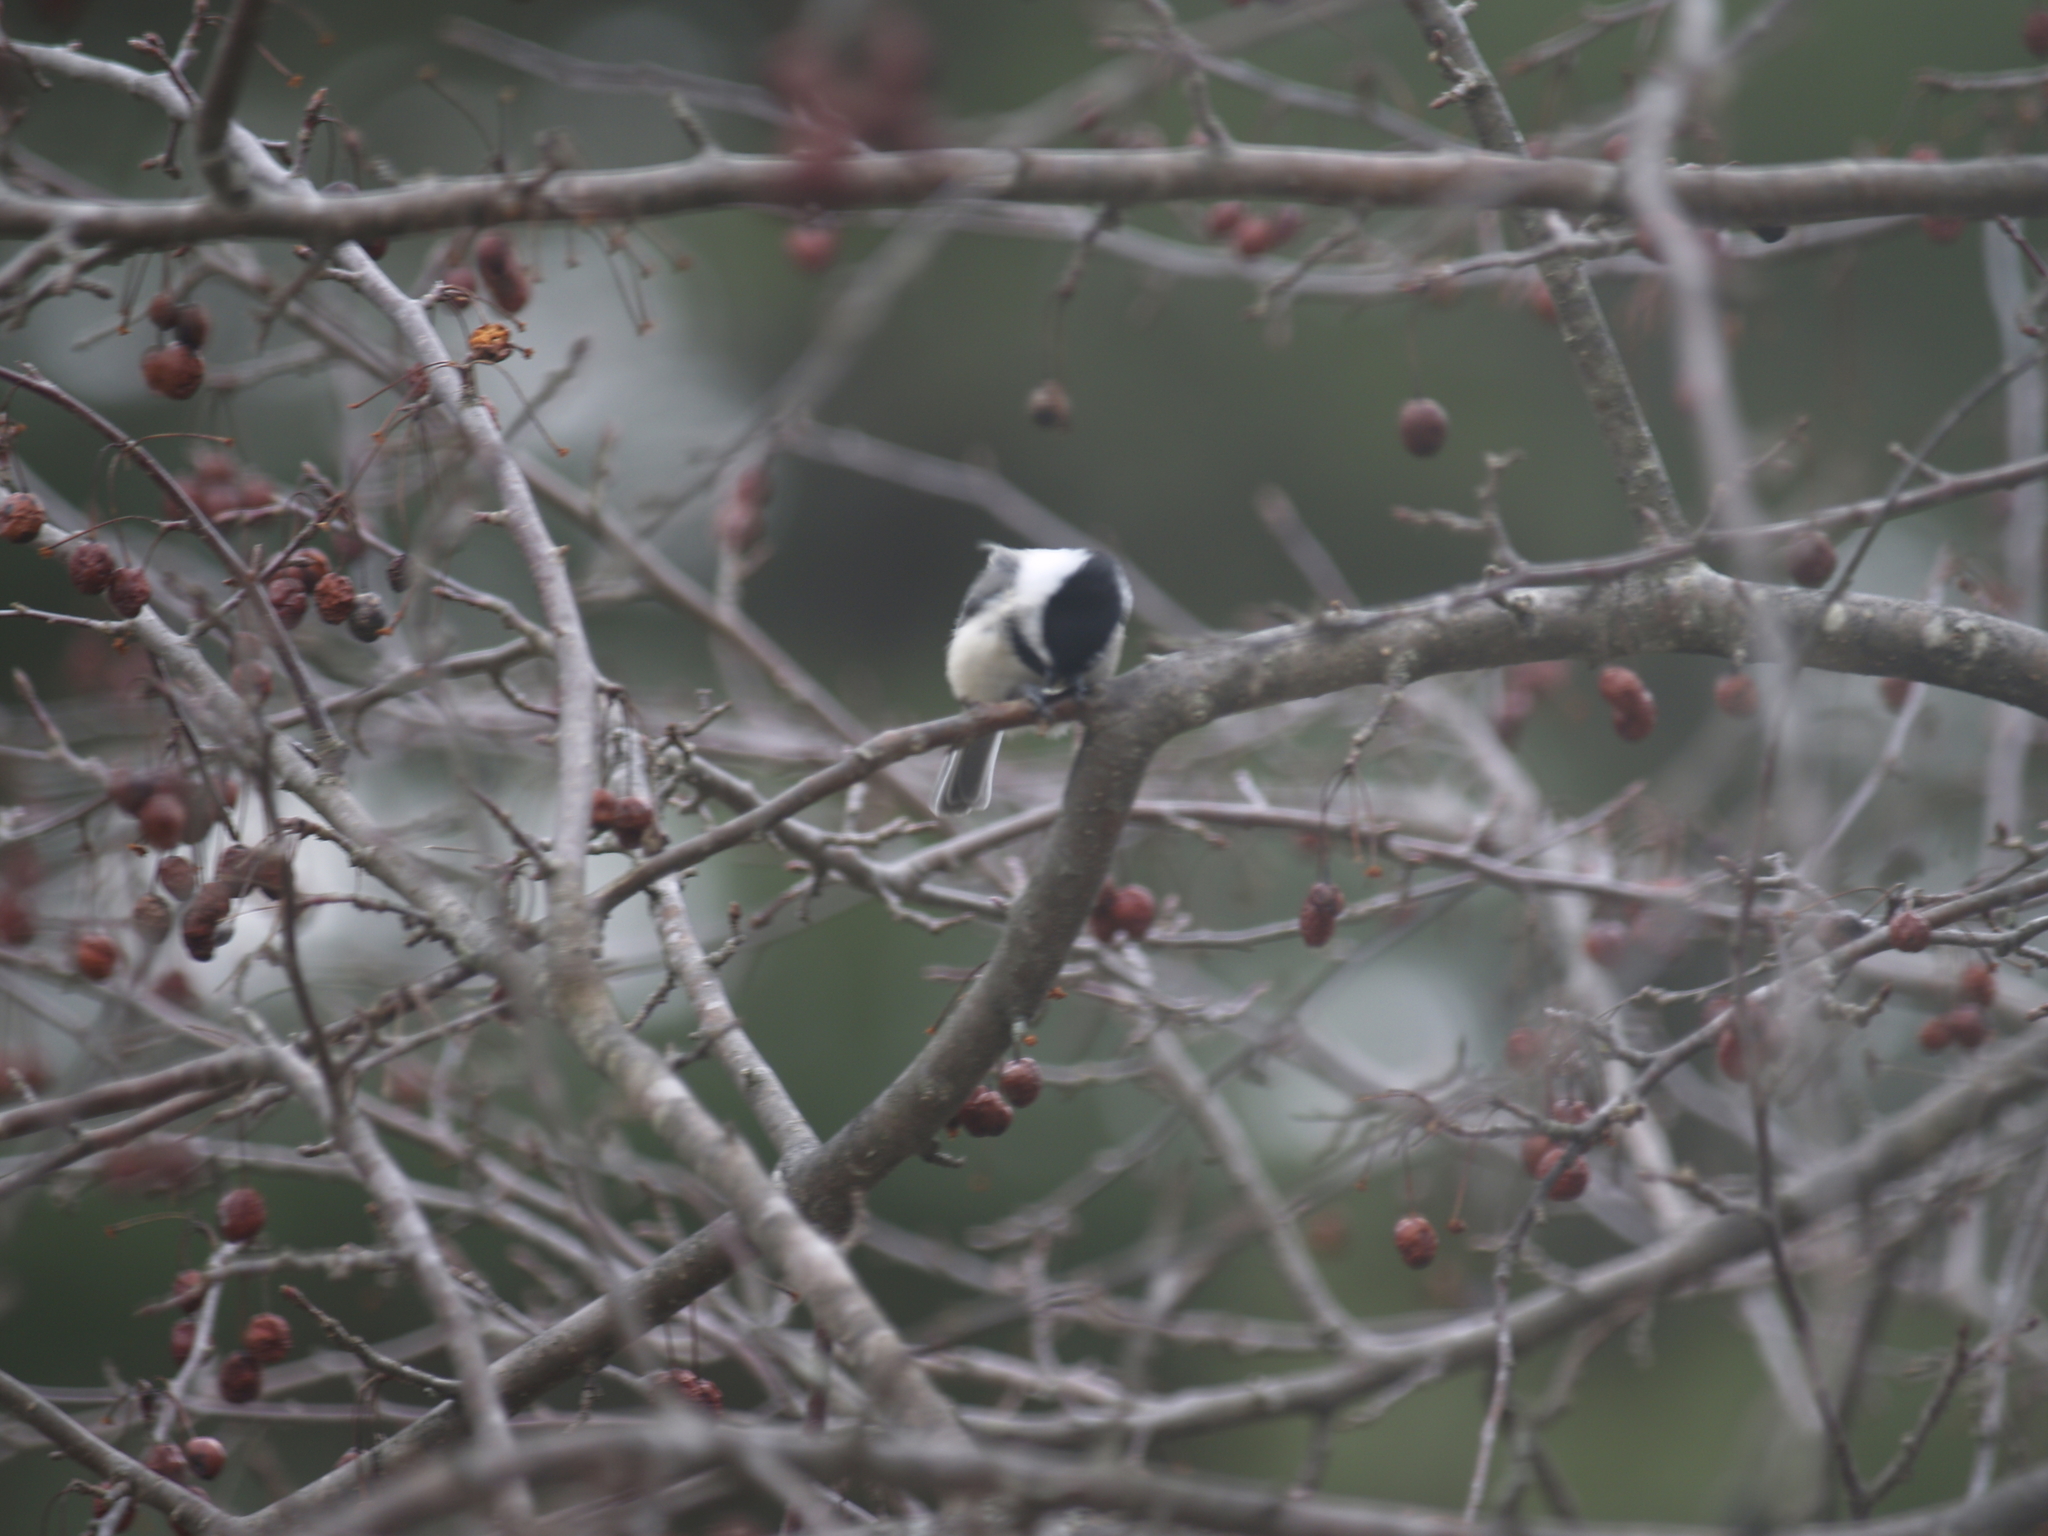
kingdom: Animalia
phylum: Chordata
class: Aves
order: Passeriformes
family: Paridae
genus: Poecile
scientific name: Poecile atricapillus
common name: Black-capped chickadee
